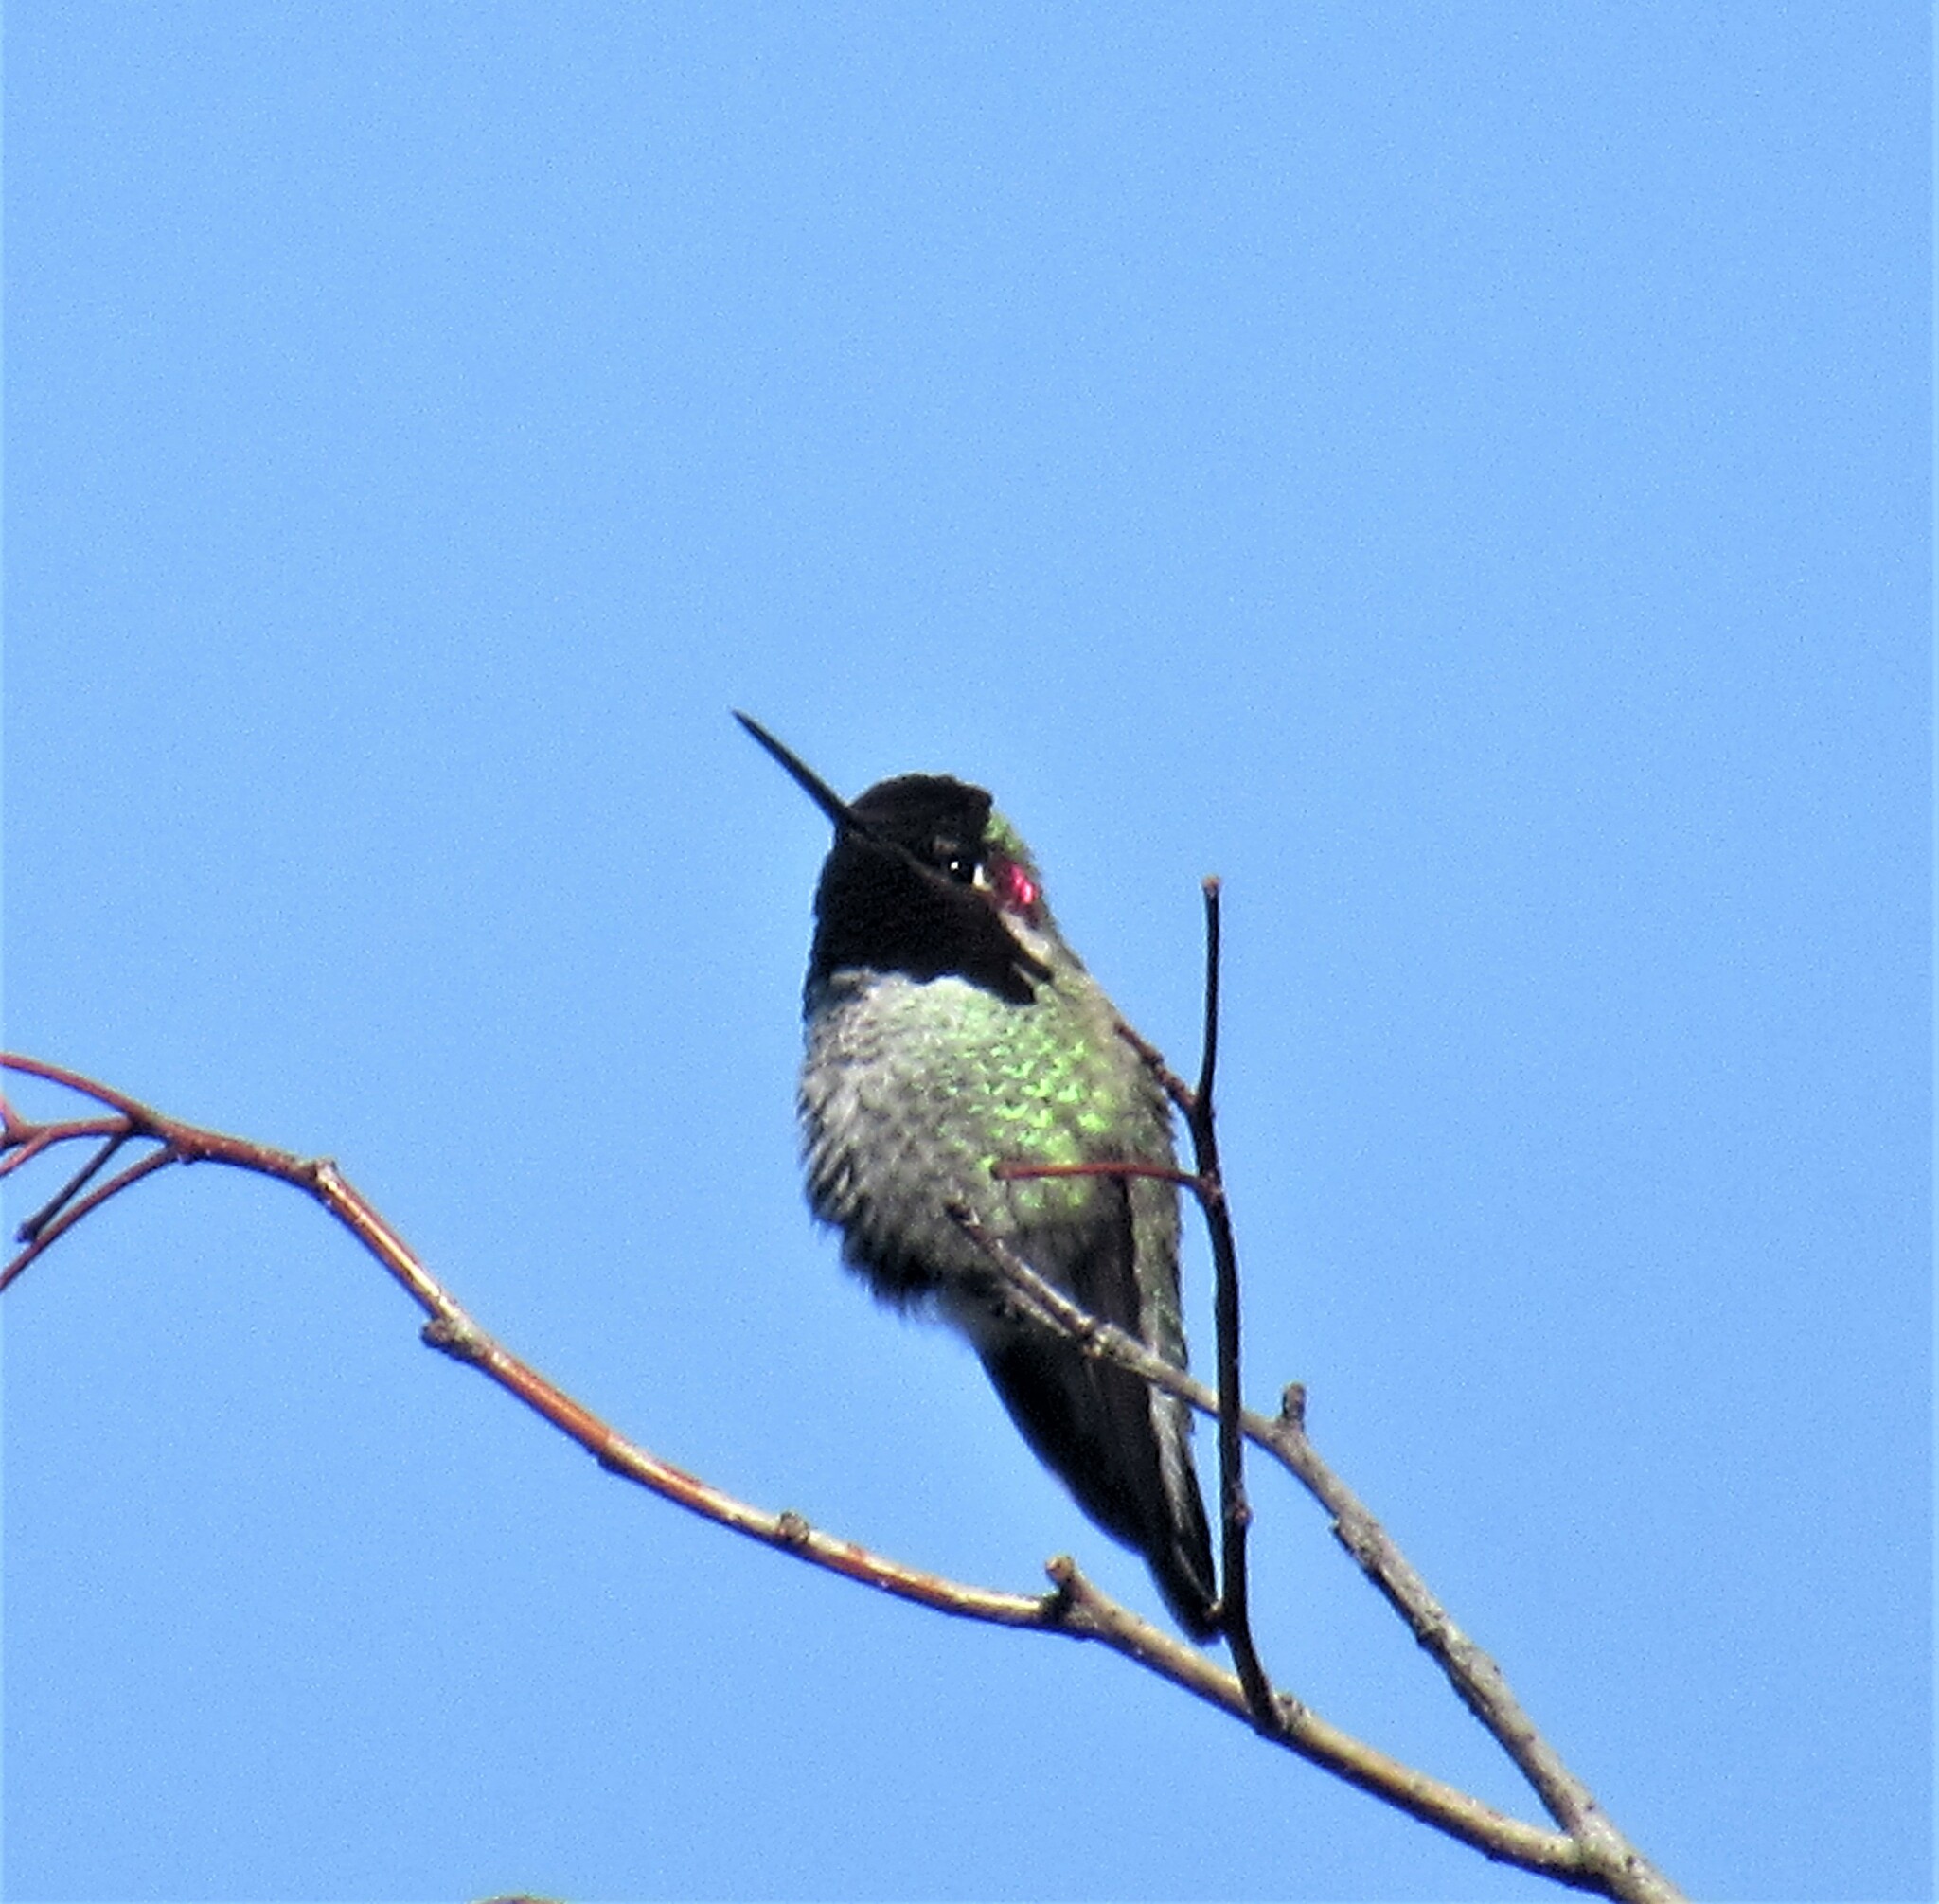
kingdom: Animalia
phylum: Chordata
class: Aves
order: Apodiformes
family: Trochilidae
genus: Calypte
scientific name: Calypte anna
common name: Anna's hummingbird
